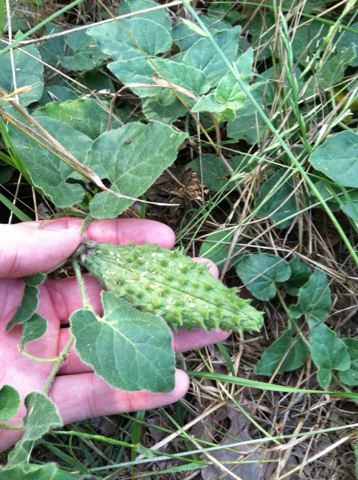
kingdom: Plantae
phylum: Tracheophyta
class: Magnoliopsida
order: Gentianales
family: Apocynaceae
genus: Chthamalia
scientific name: Chthamalia biflora
